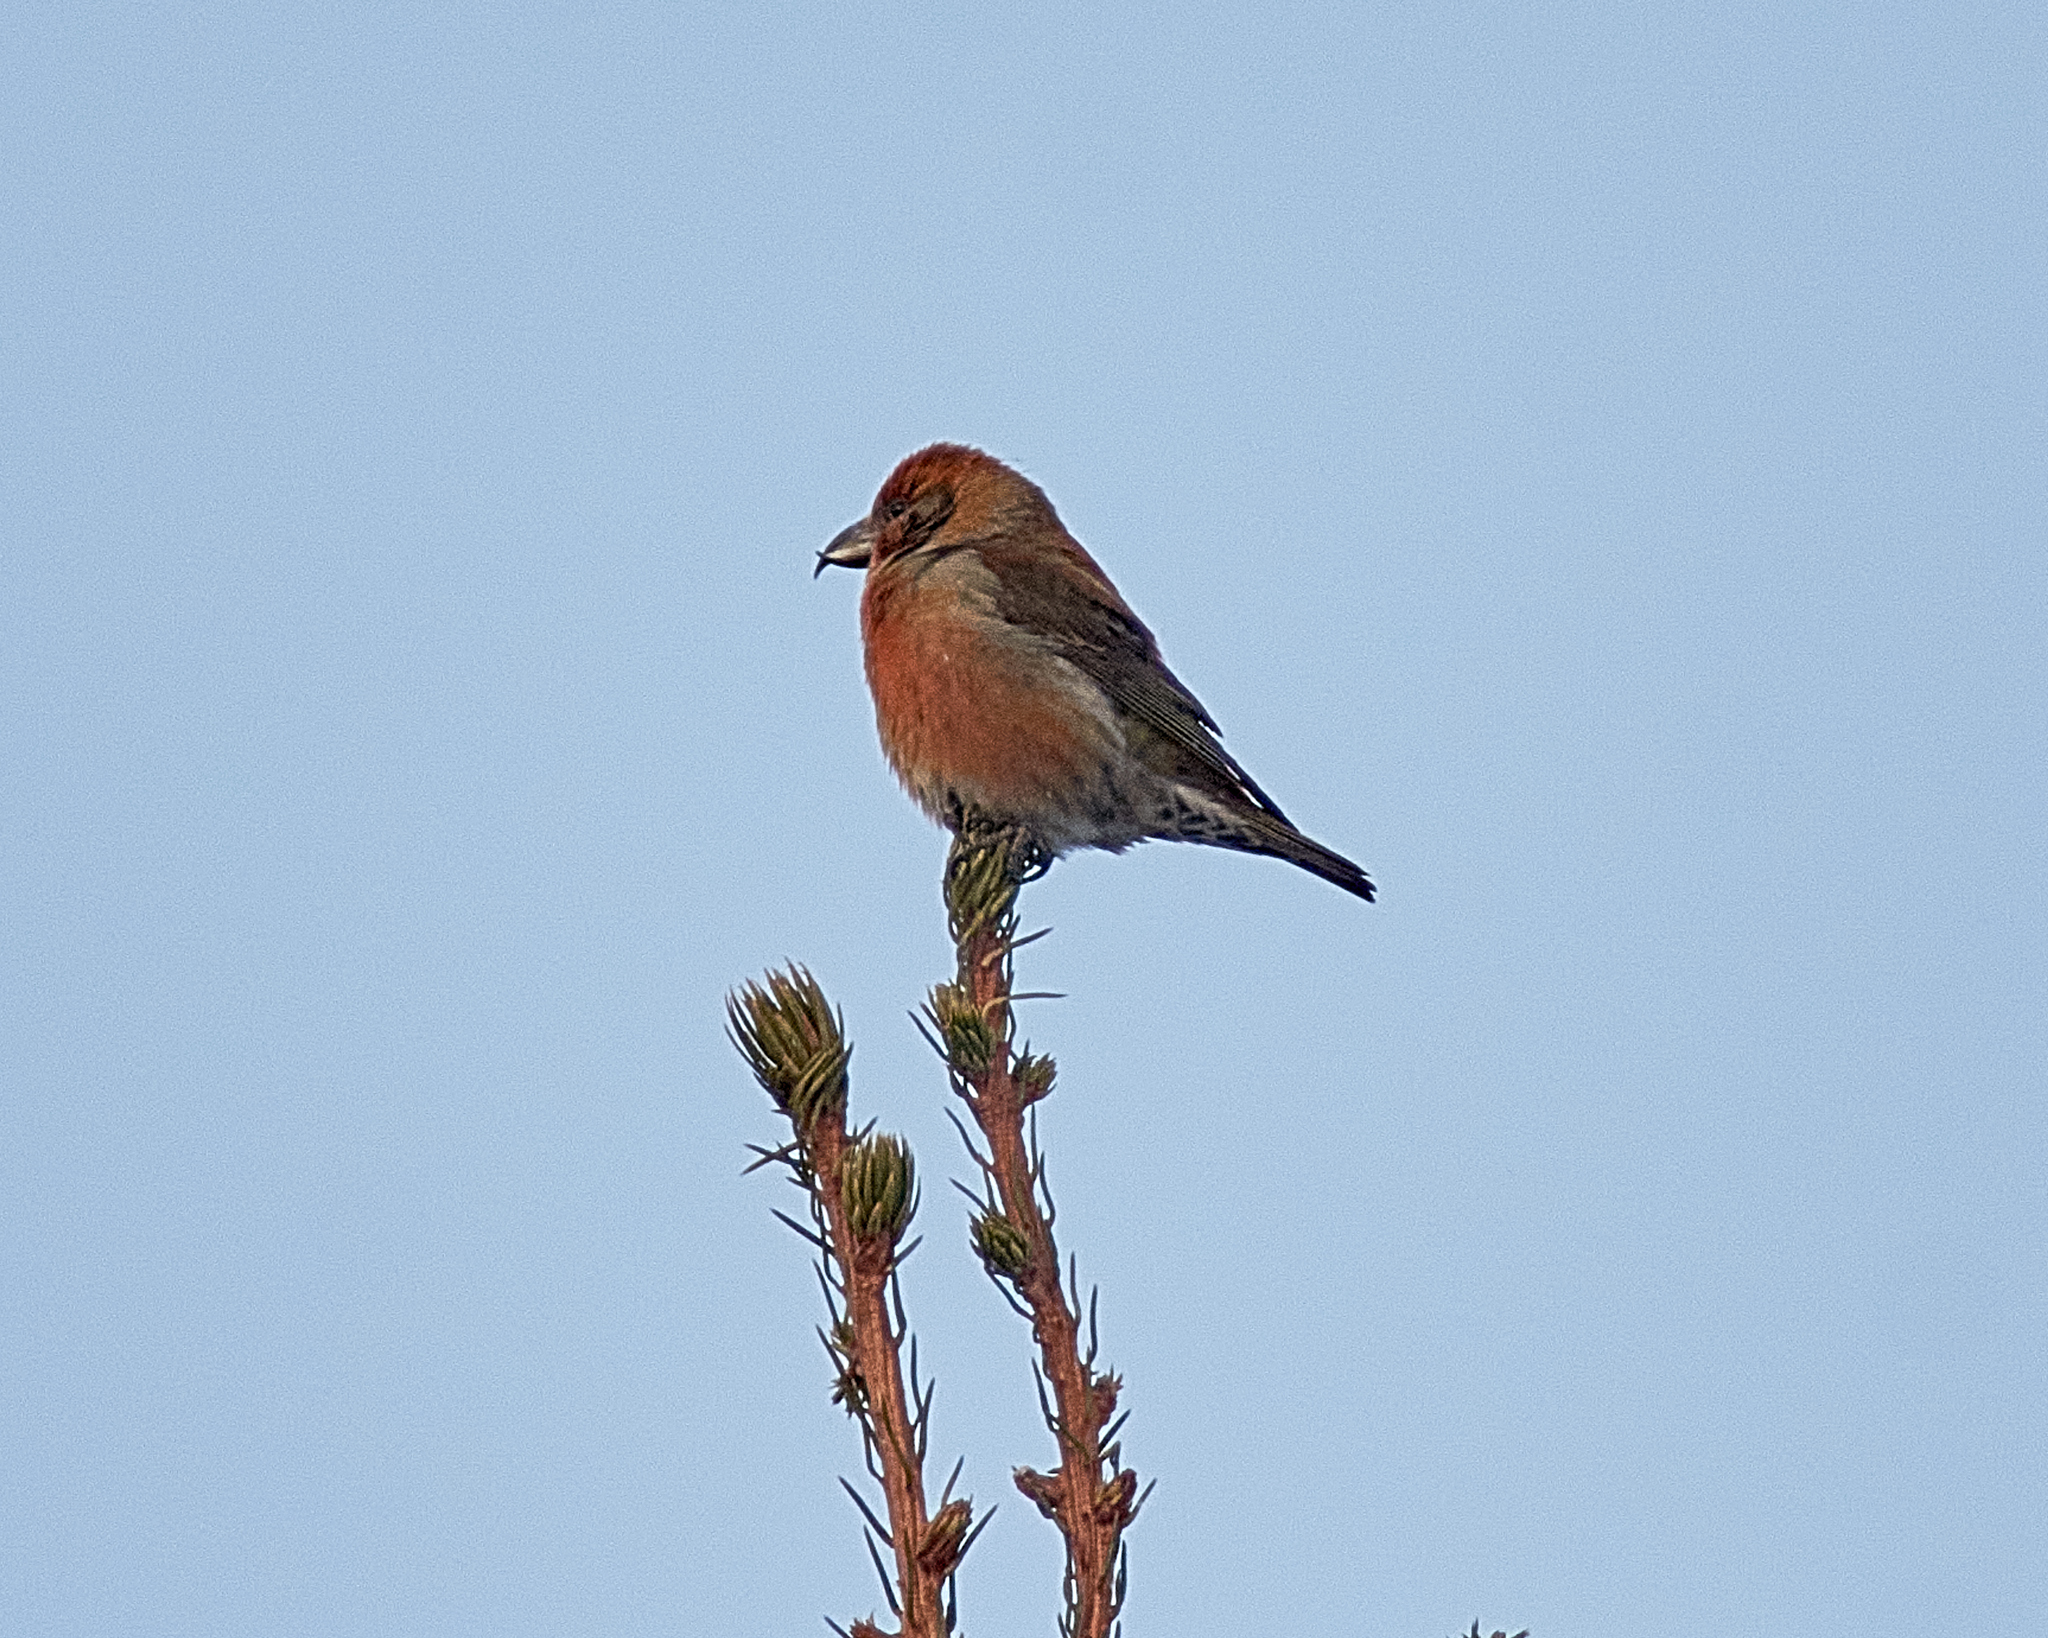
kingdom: Animalia
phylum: Chordata
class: Aves
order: Passeriformes
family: Fringillidae
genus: Loxia
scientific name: Loxia curvirostra
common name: Red crossbill
